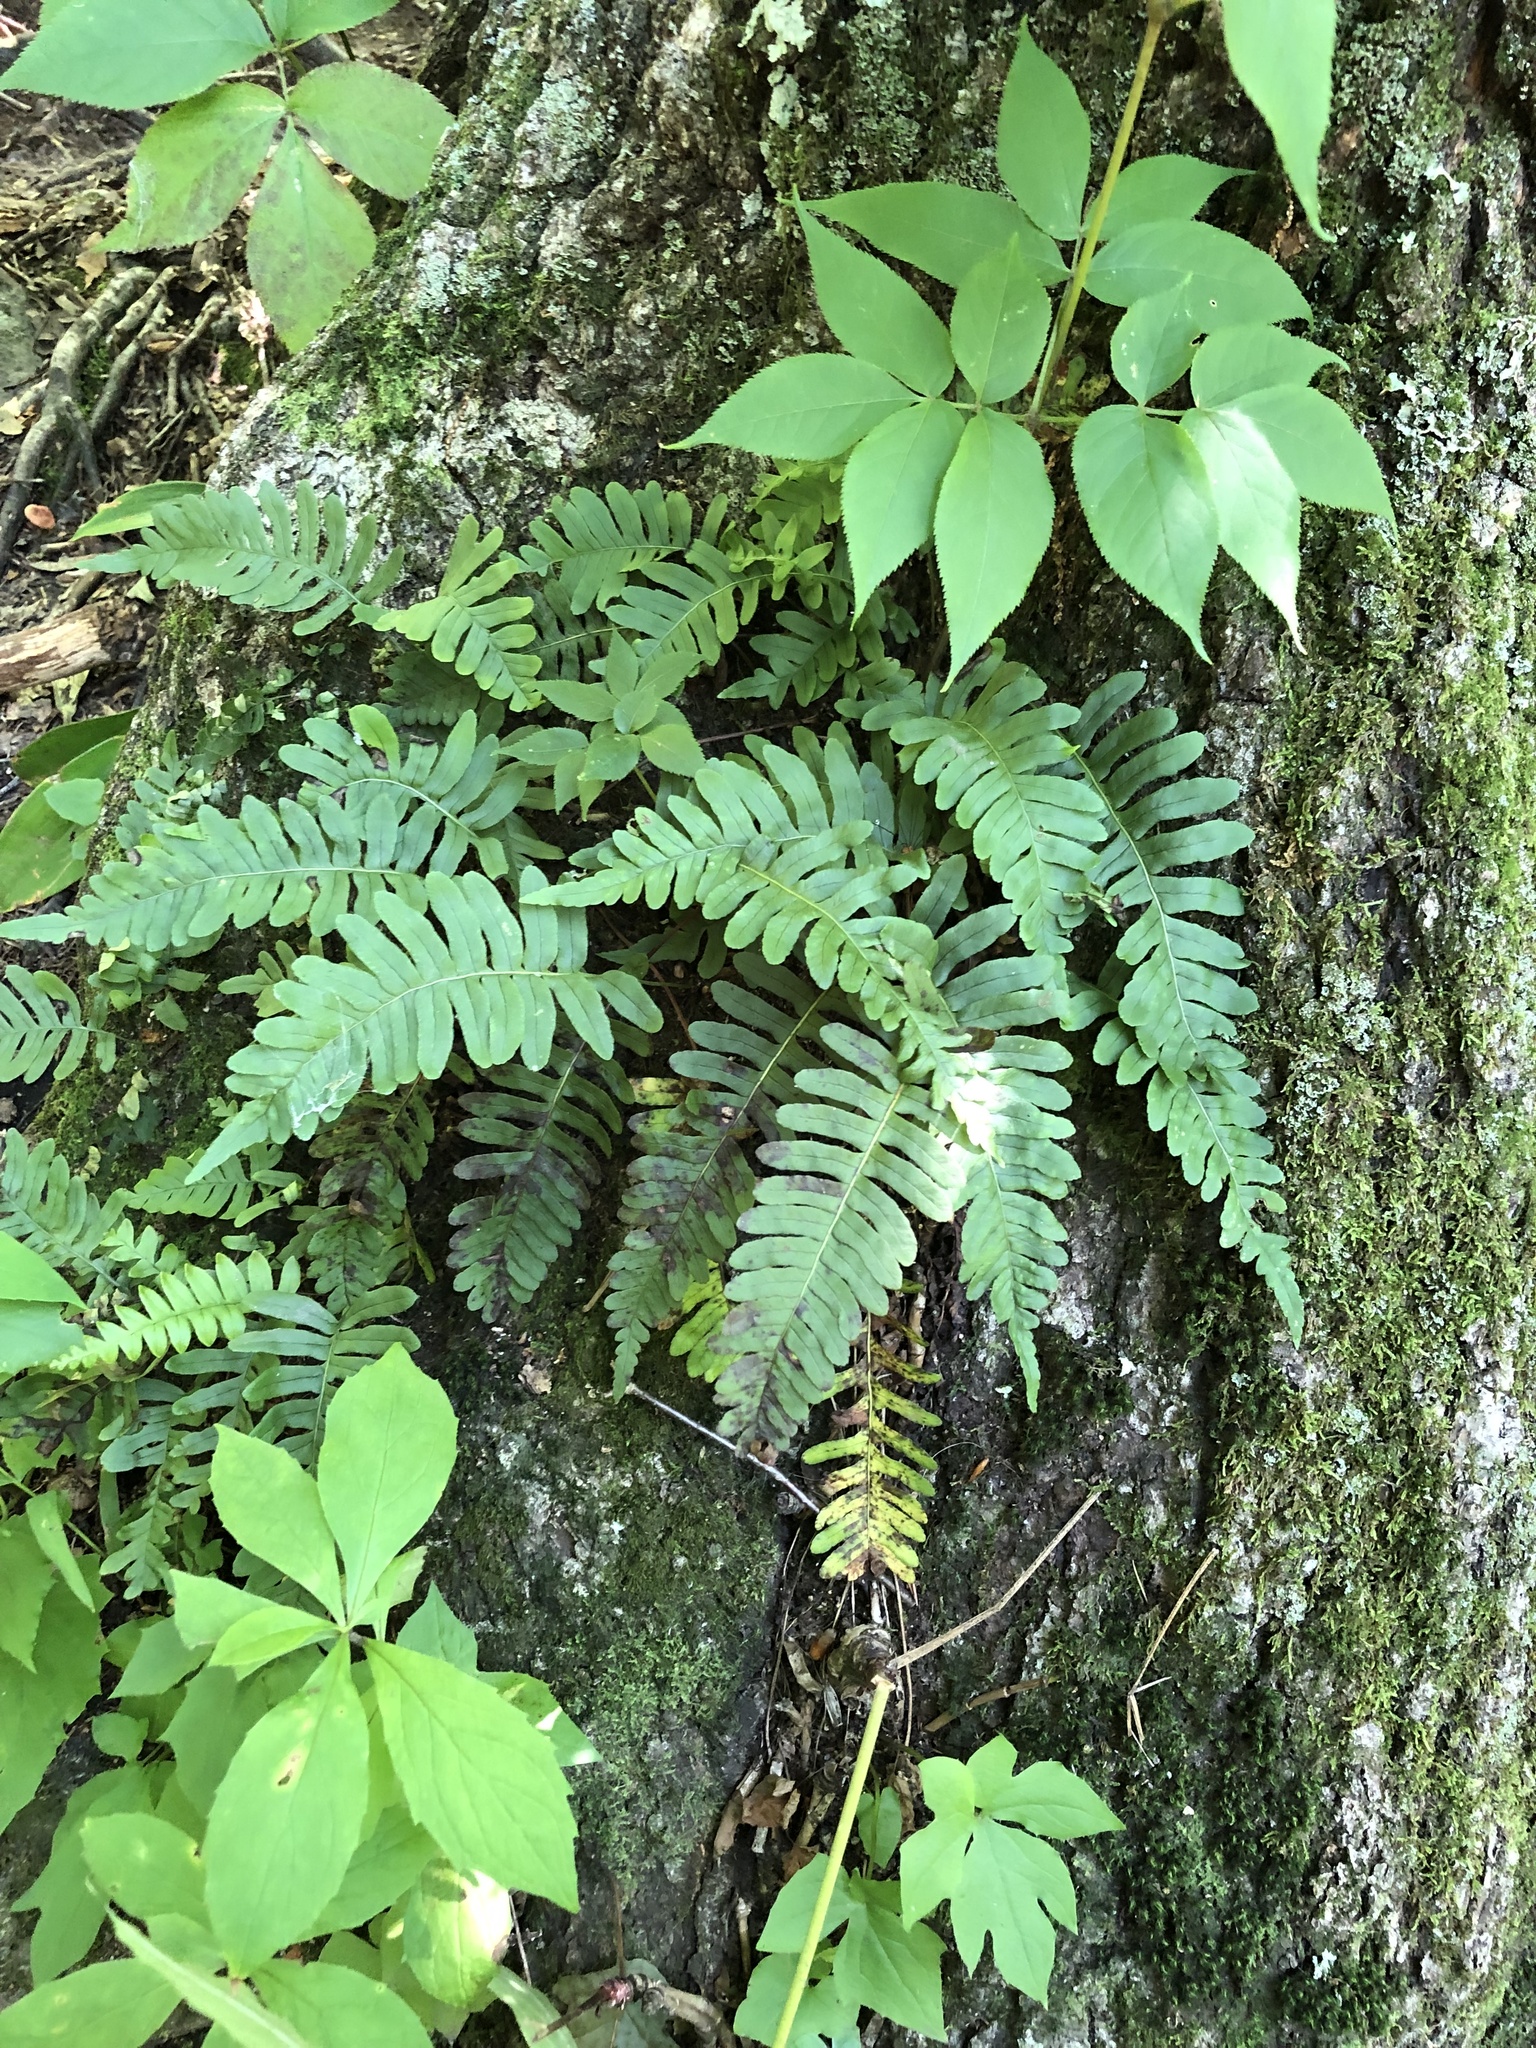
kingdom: Plantae
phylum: Tracheophyta
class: Polypodiopsida
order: Polypodiales
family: Polypodiaceae
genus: Polypodium
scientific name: Polypodium virginianum
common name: American wall fern
